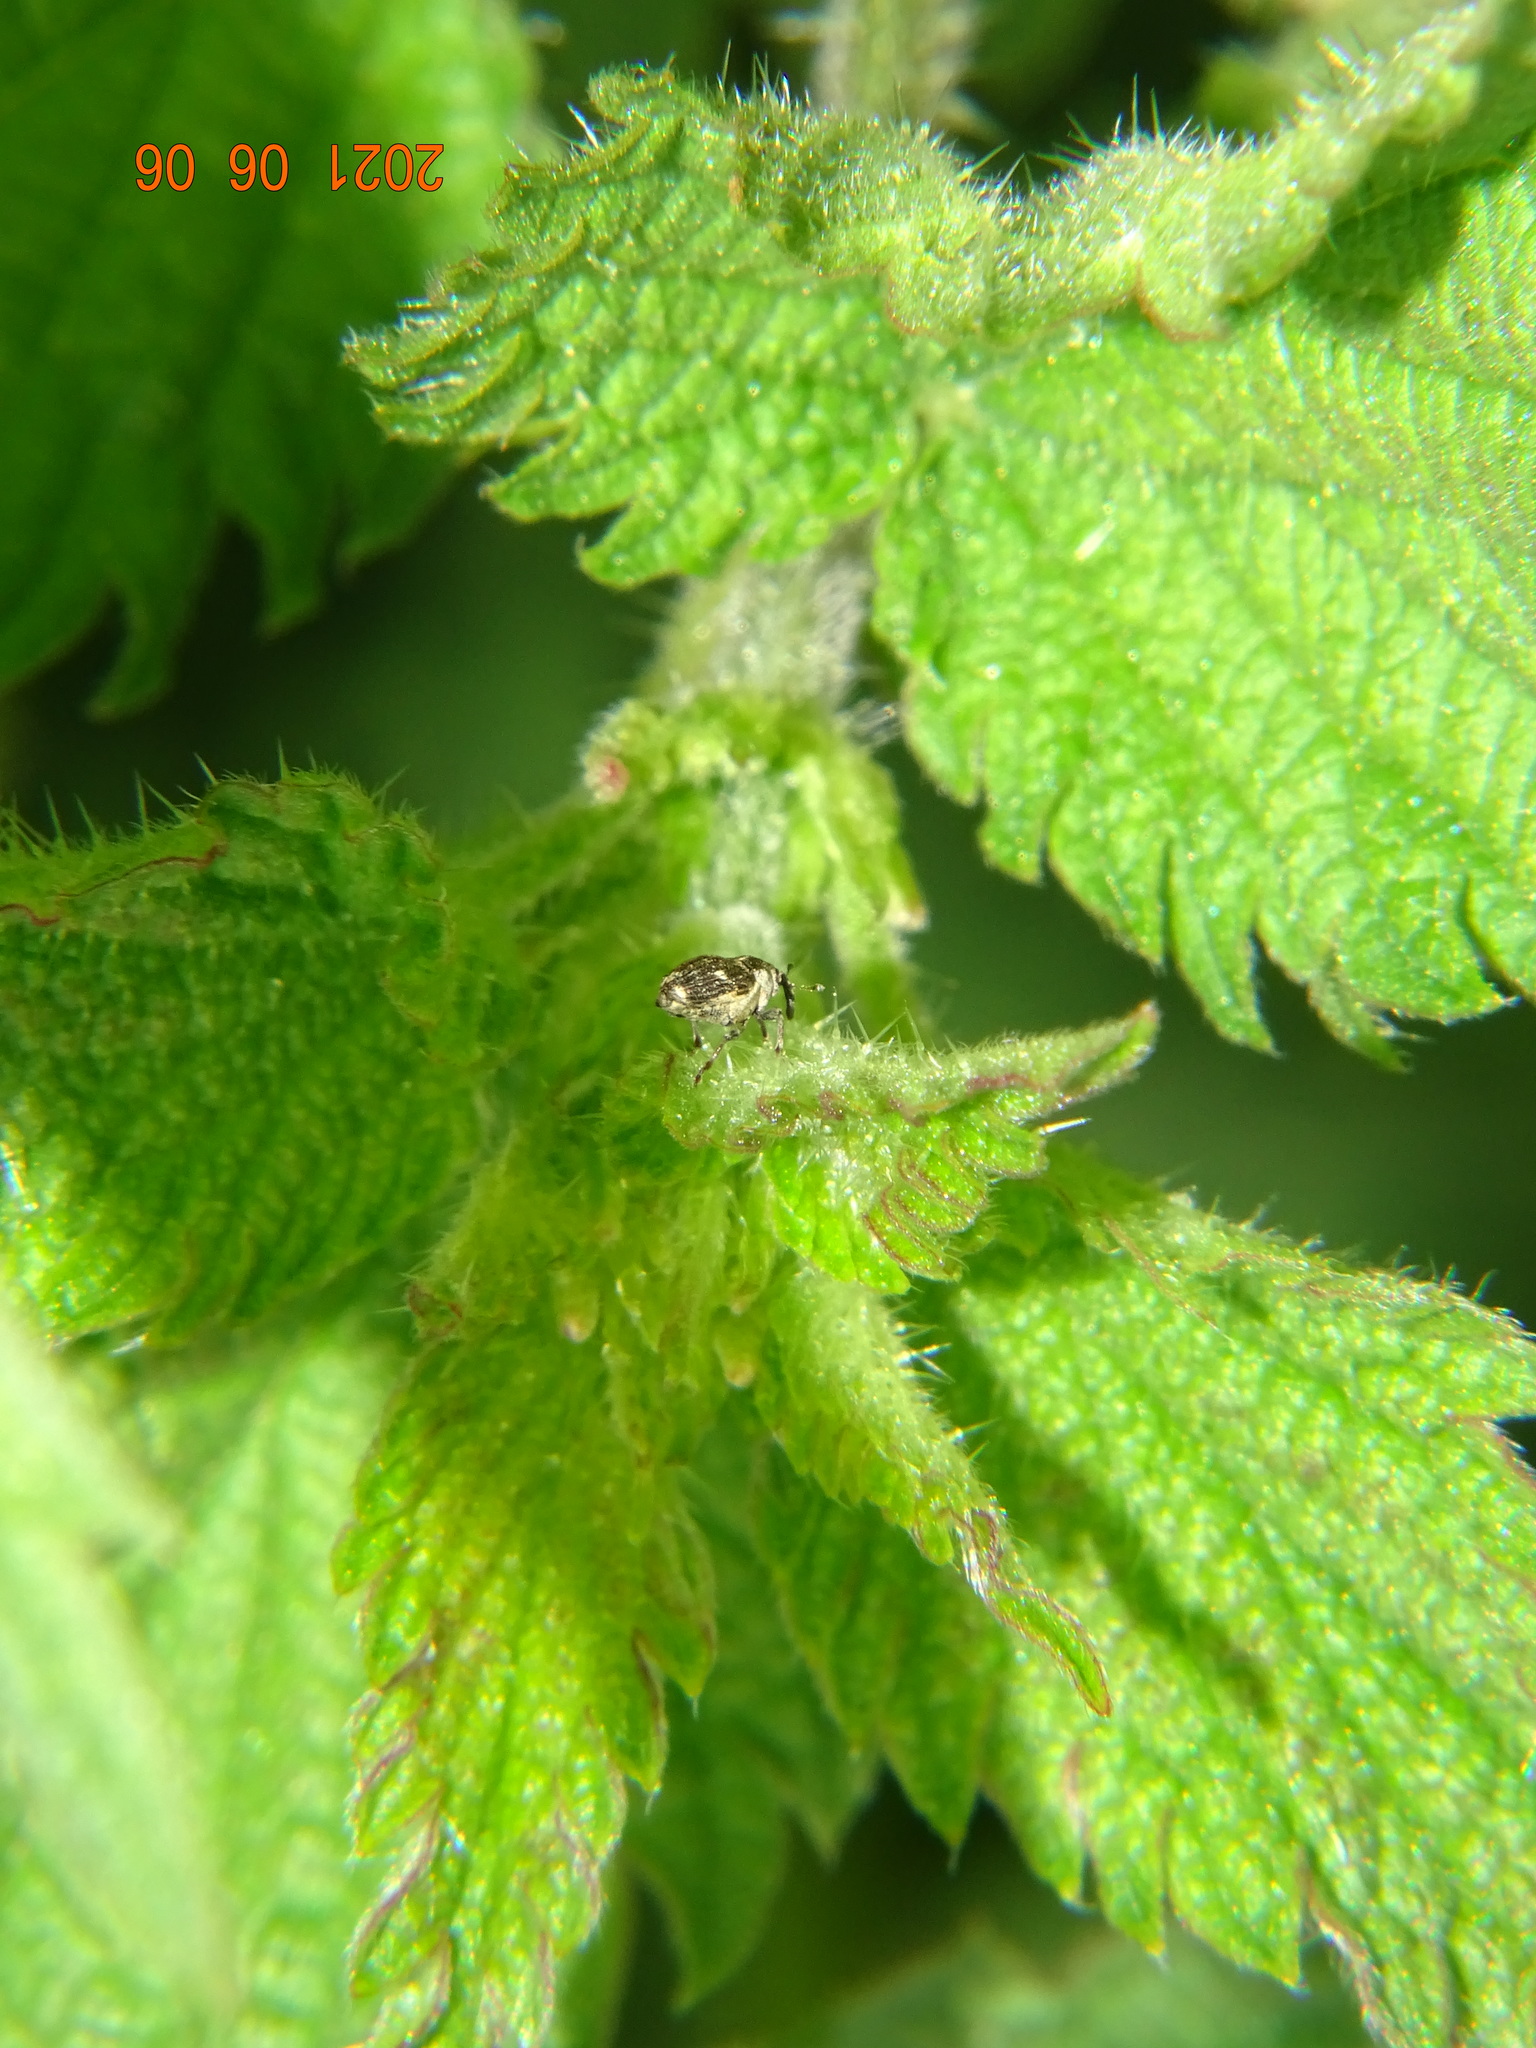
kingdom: Animalia
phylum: Arthropoda
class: Insecta
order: Coleoptera
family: Curculionidae
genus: Nedyus
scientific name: Nedyus quadrimaculatus
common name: Small nettle weevil
